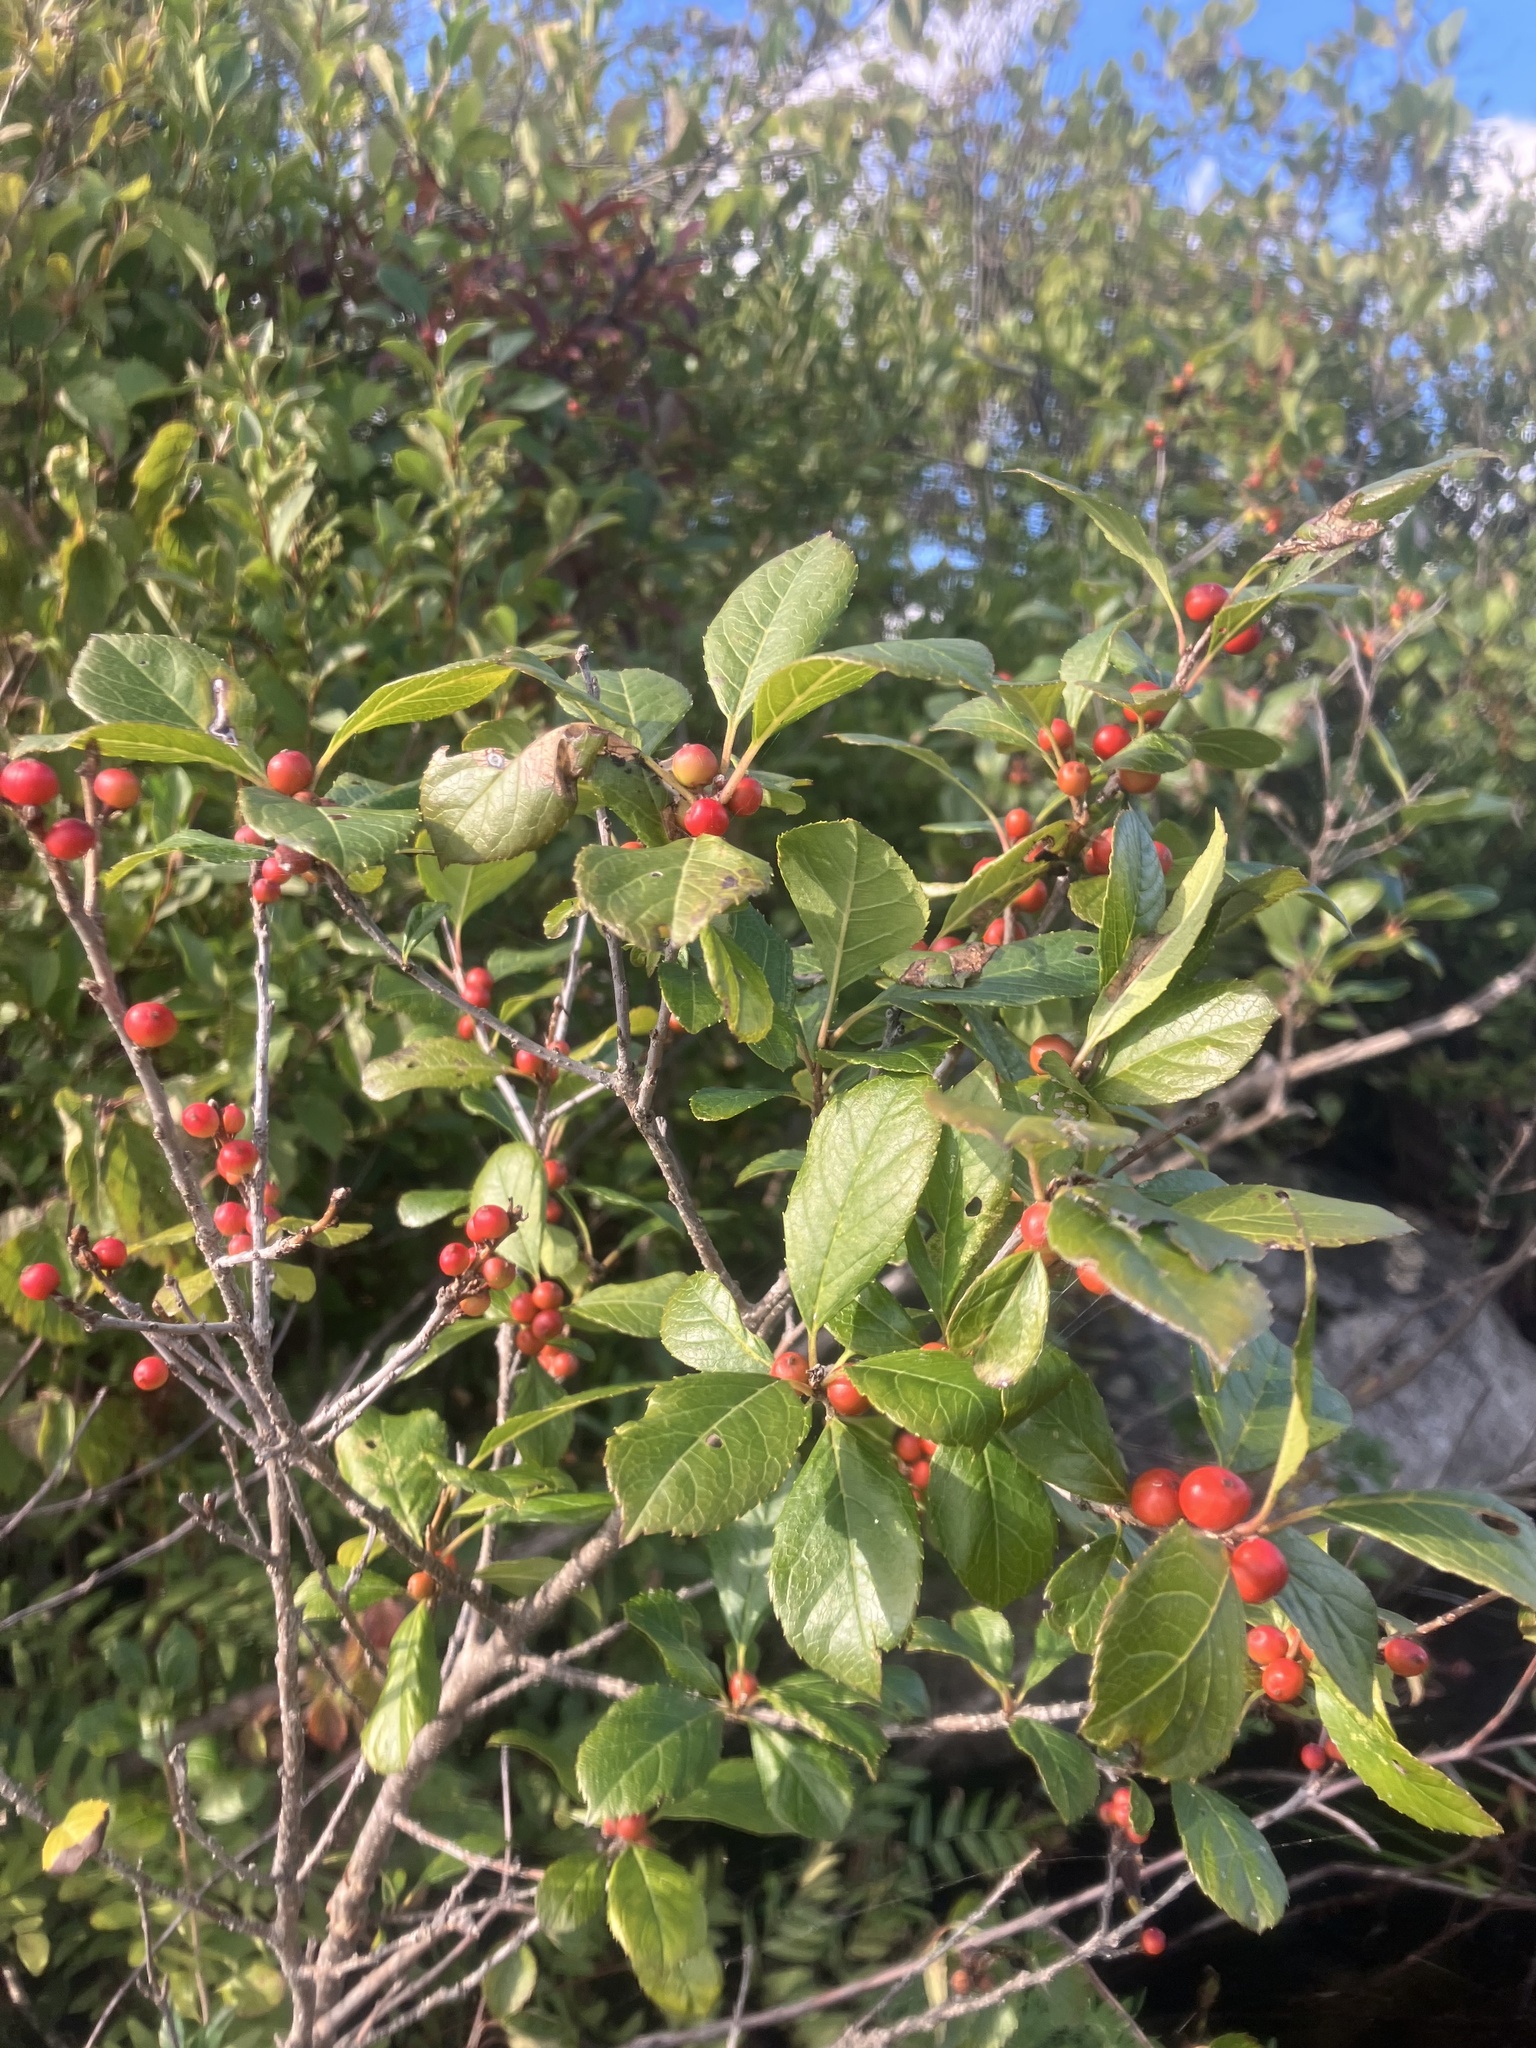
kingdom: Plantae
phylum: Tracheophyta
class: Magnoliopsida
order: Aquifoliales
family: Aquifoliaceae
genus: Ilex
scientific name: Ilex verticillata
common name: Virginia winterberry
